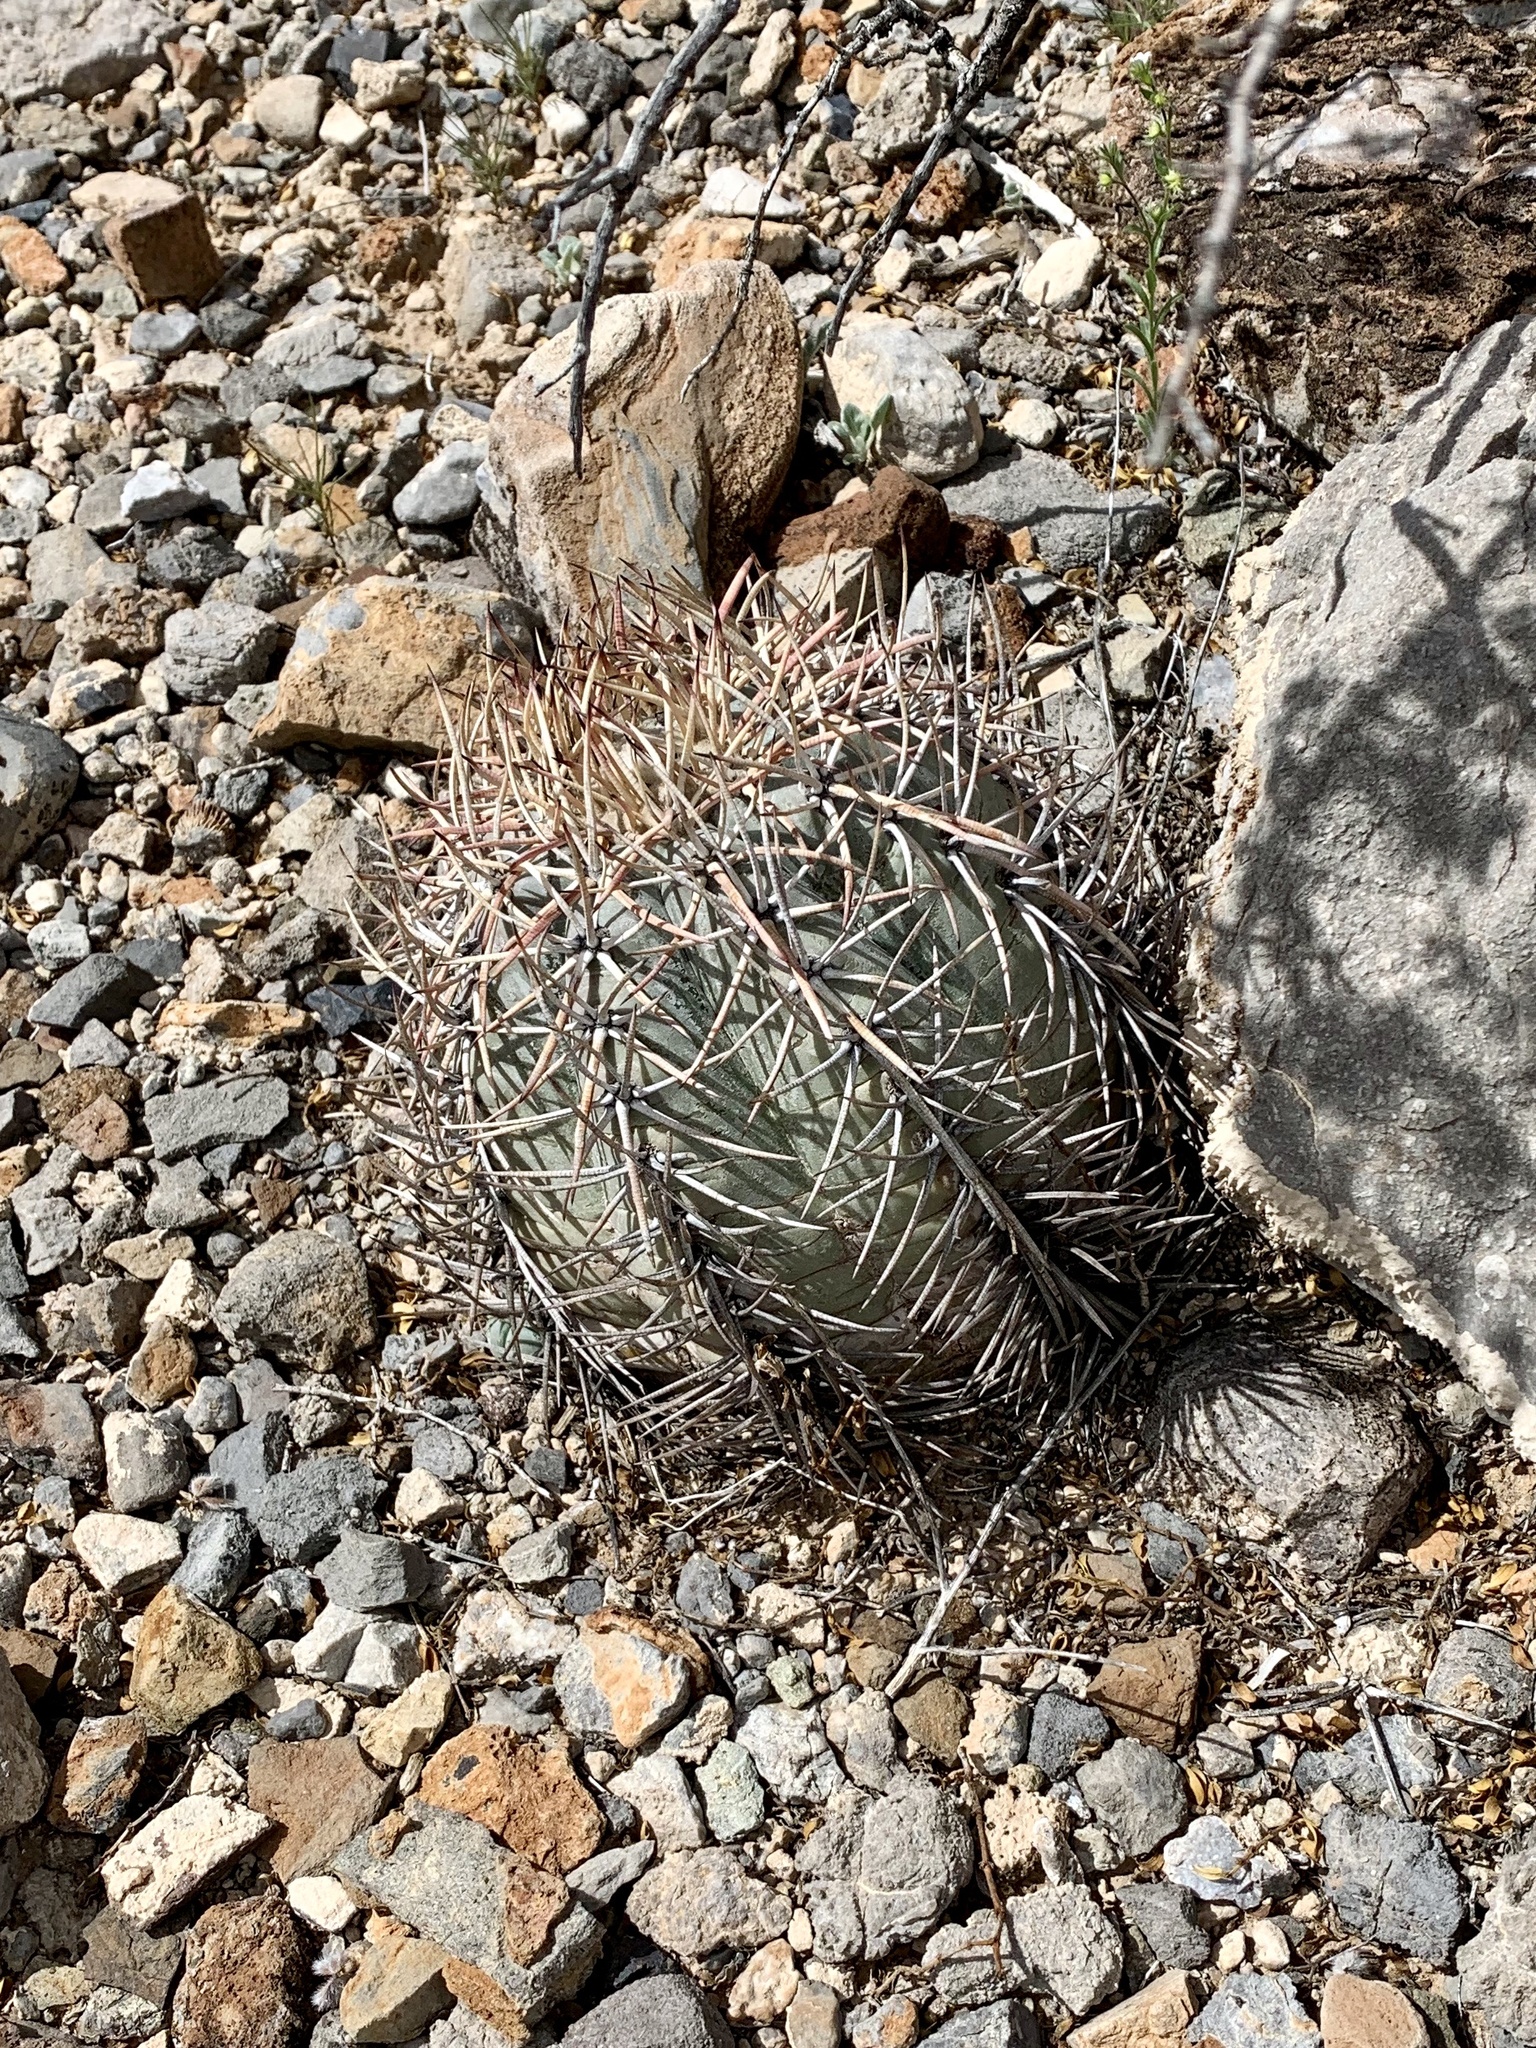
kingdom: Plantae
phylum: Tracheophyta
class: Magnoliopsida
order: Caryophyllales
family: Cactaceae
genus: Echinocactus
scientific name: Echinocactus horizonthalonius
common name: Devilshead
